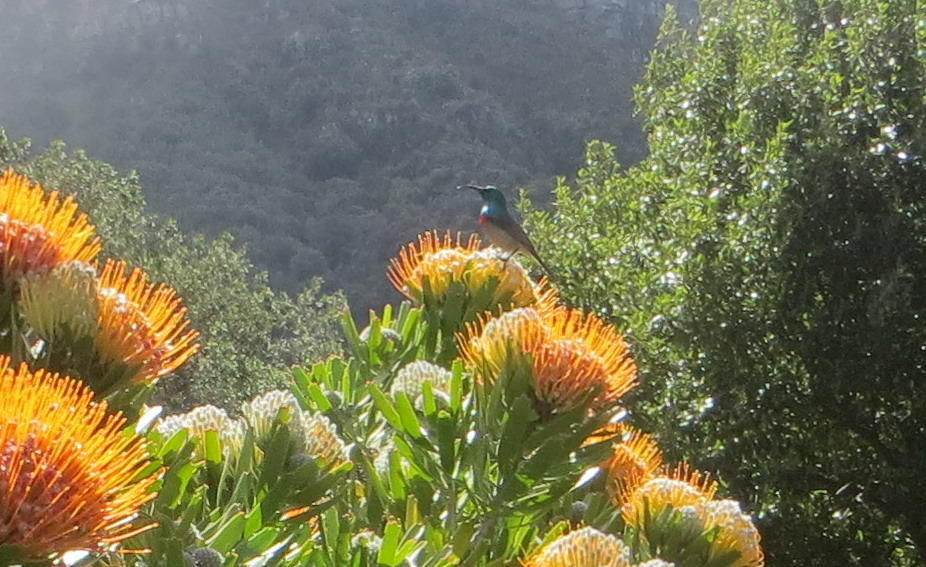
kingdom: Animalia
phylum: Chordata
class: Aves
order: Passeriformes
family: Nectariniidae
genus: Cinnyris
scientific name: Cinnyris chalybeus
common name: Southern double-collared sunbird
